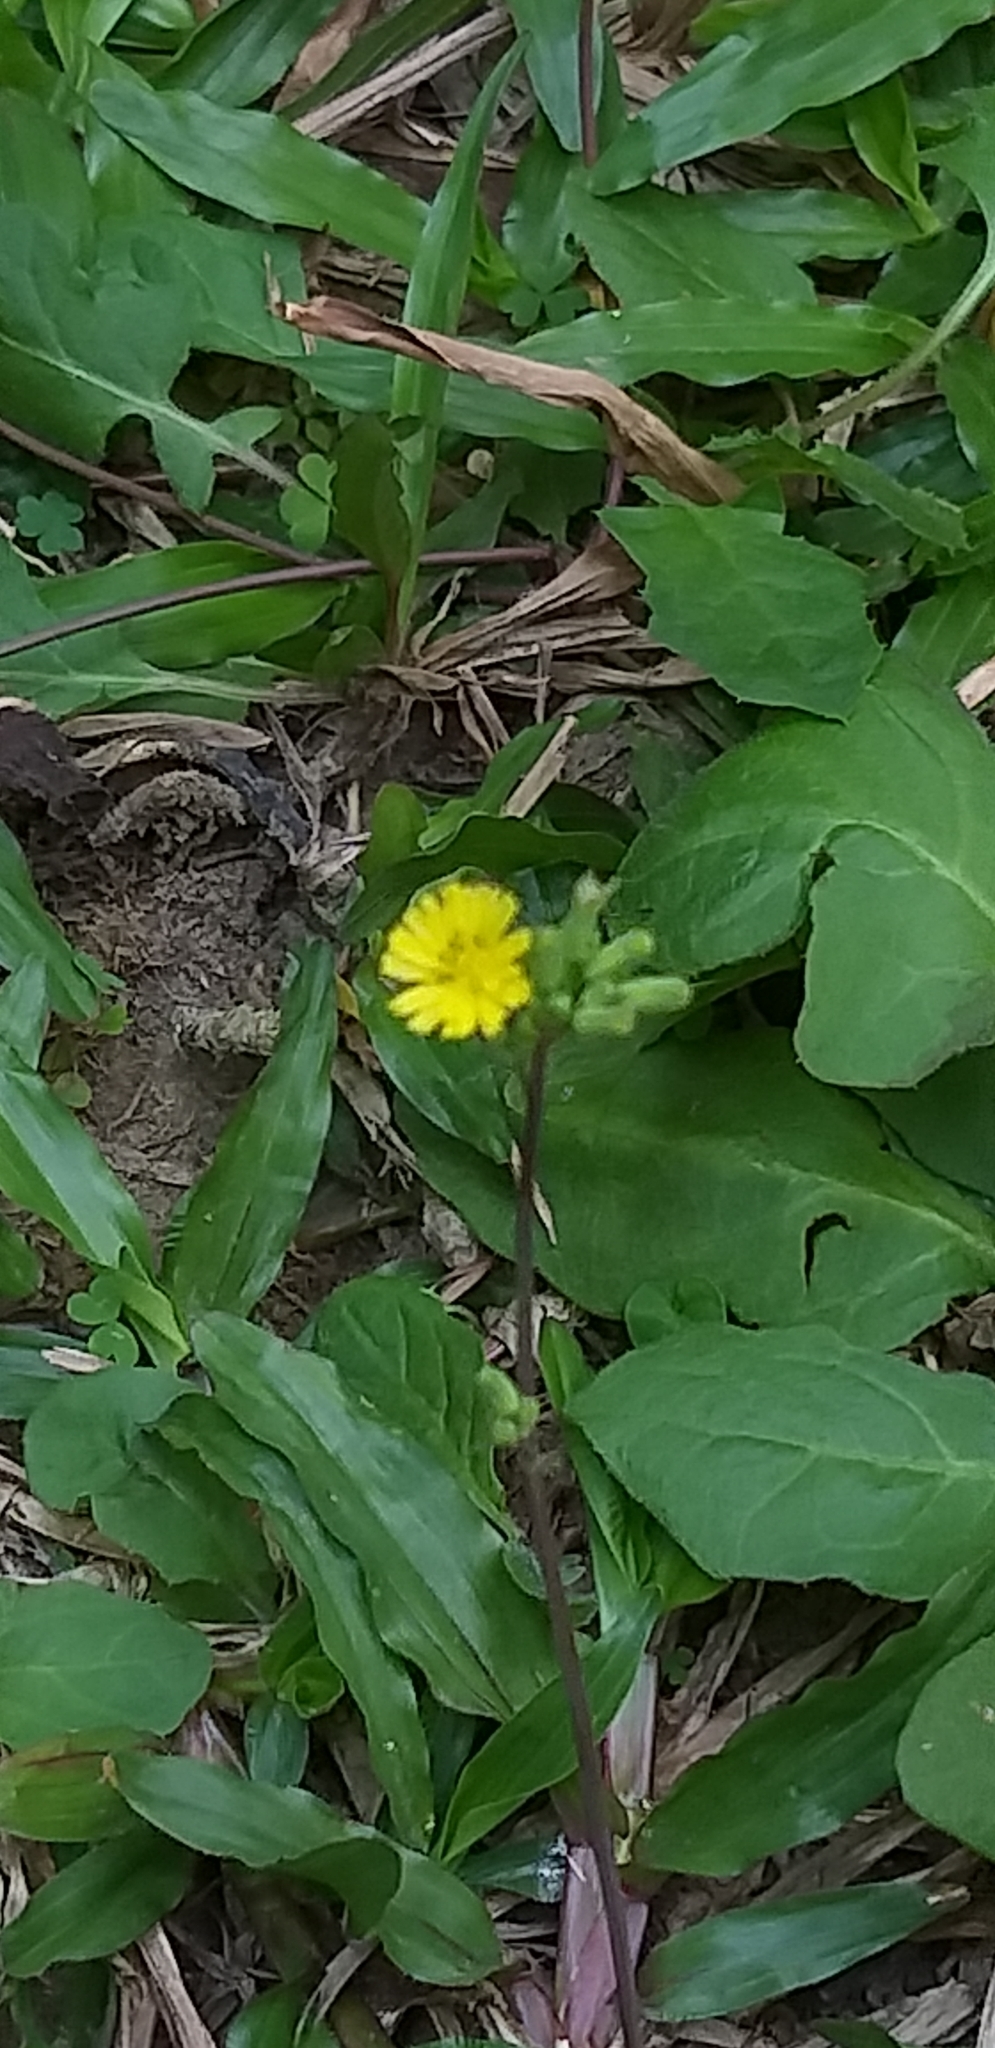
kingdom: Plantae
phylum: Tracheophyta
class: Magnoliopsida
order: Asterales
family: Asteraceae
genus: Youngia
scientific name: Youngia japonica
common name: Oriental false hawksbeard
